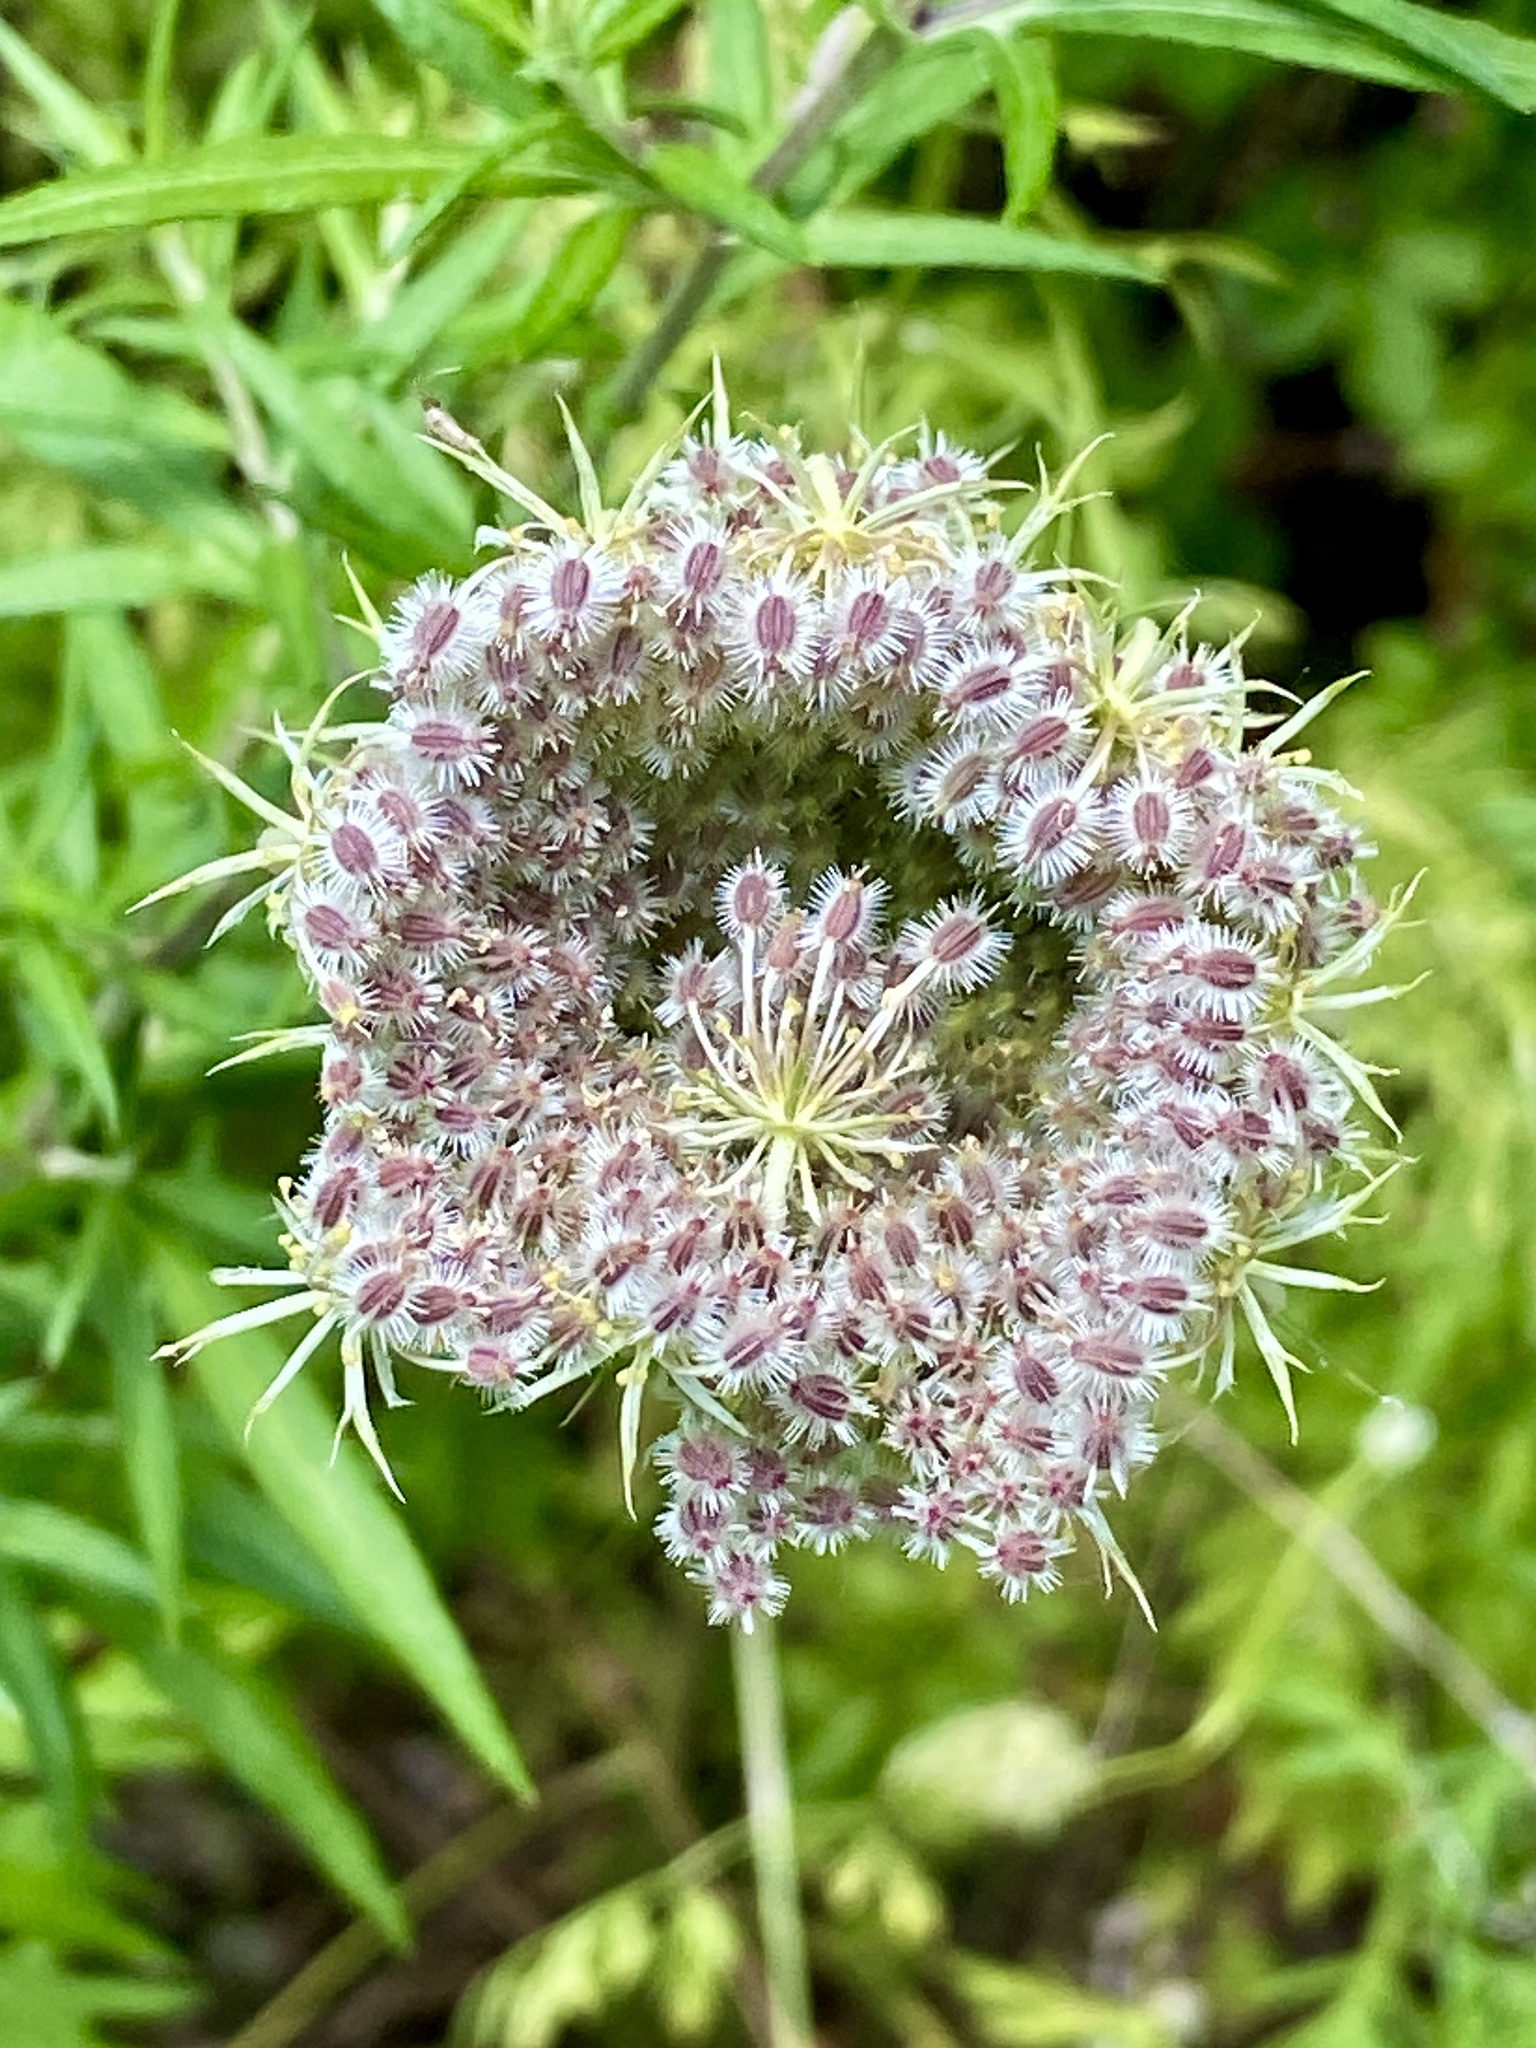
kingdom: Plantae
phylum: Tracheophyta
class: Magnoliopsida
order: Apiales
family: Apiaceae
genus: Daucus
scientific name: Daucus carota
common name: Wild carrot
